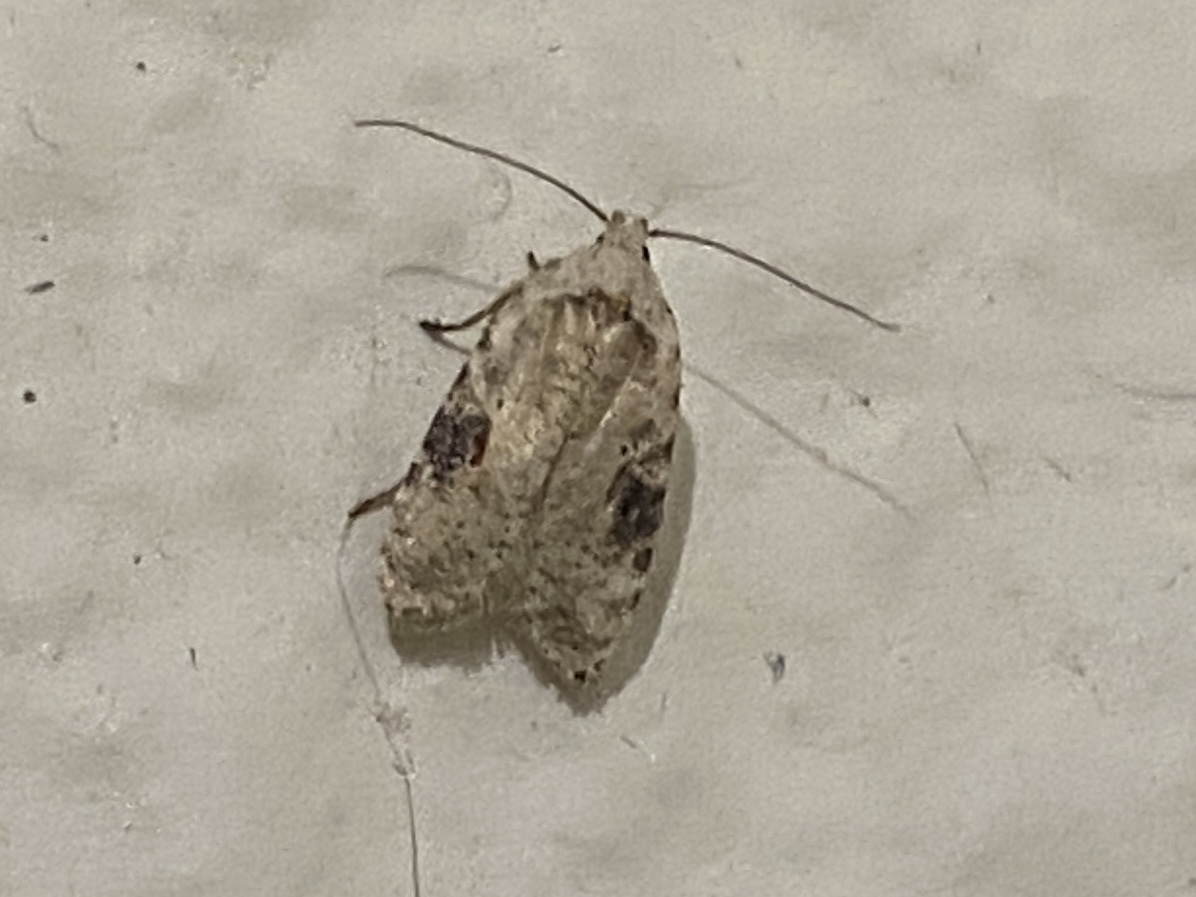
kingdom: Animalia
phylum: Arthropoda
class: Insecta
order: Lepidoptera
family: Depressariidae
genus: Agonopterix
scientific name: Agonopterix alstroemeriana
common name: Moth
